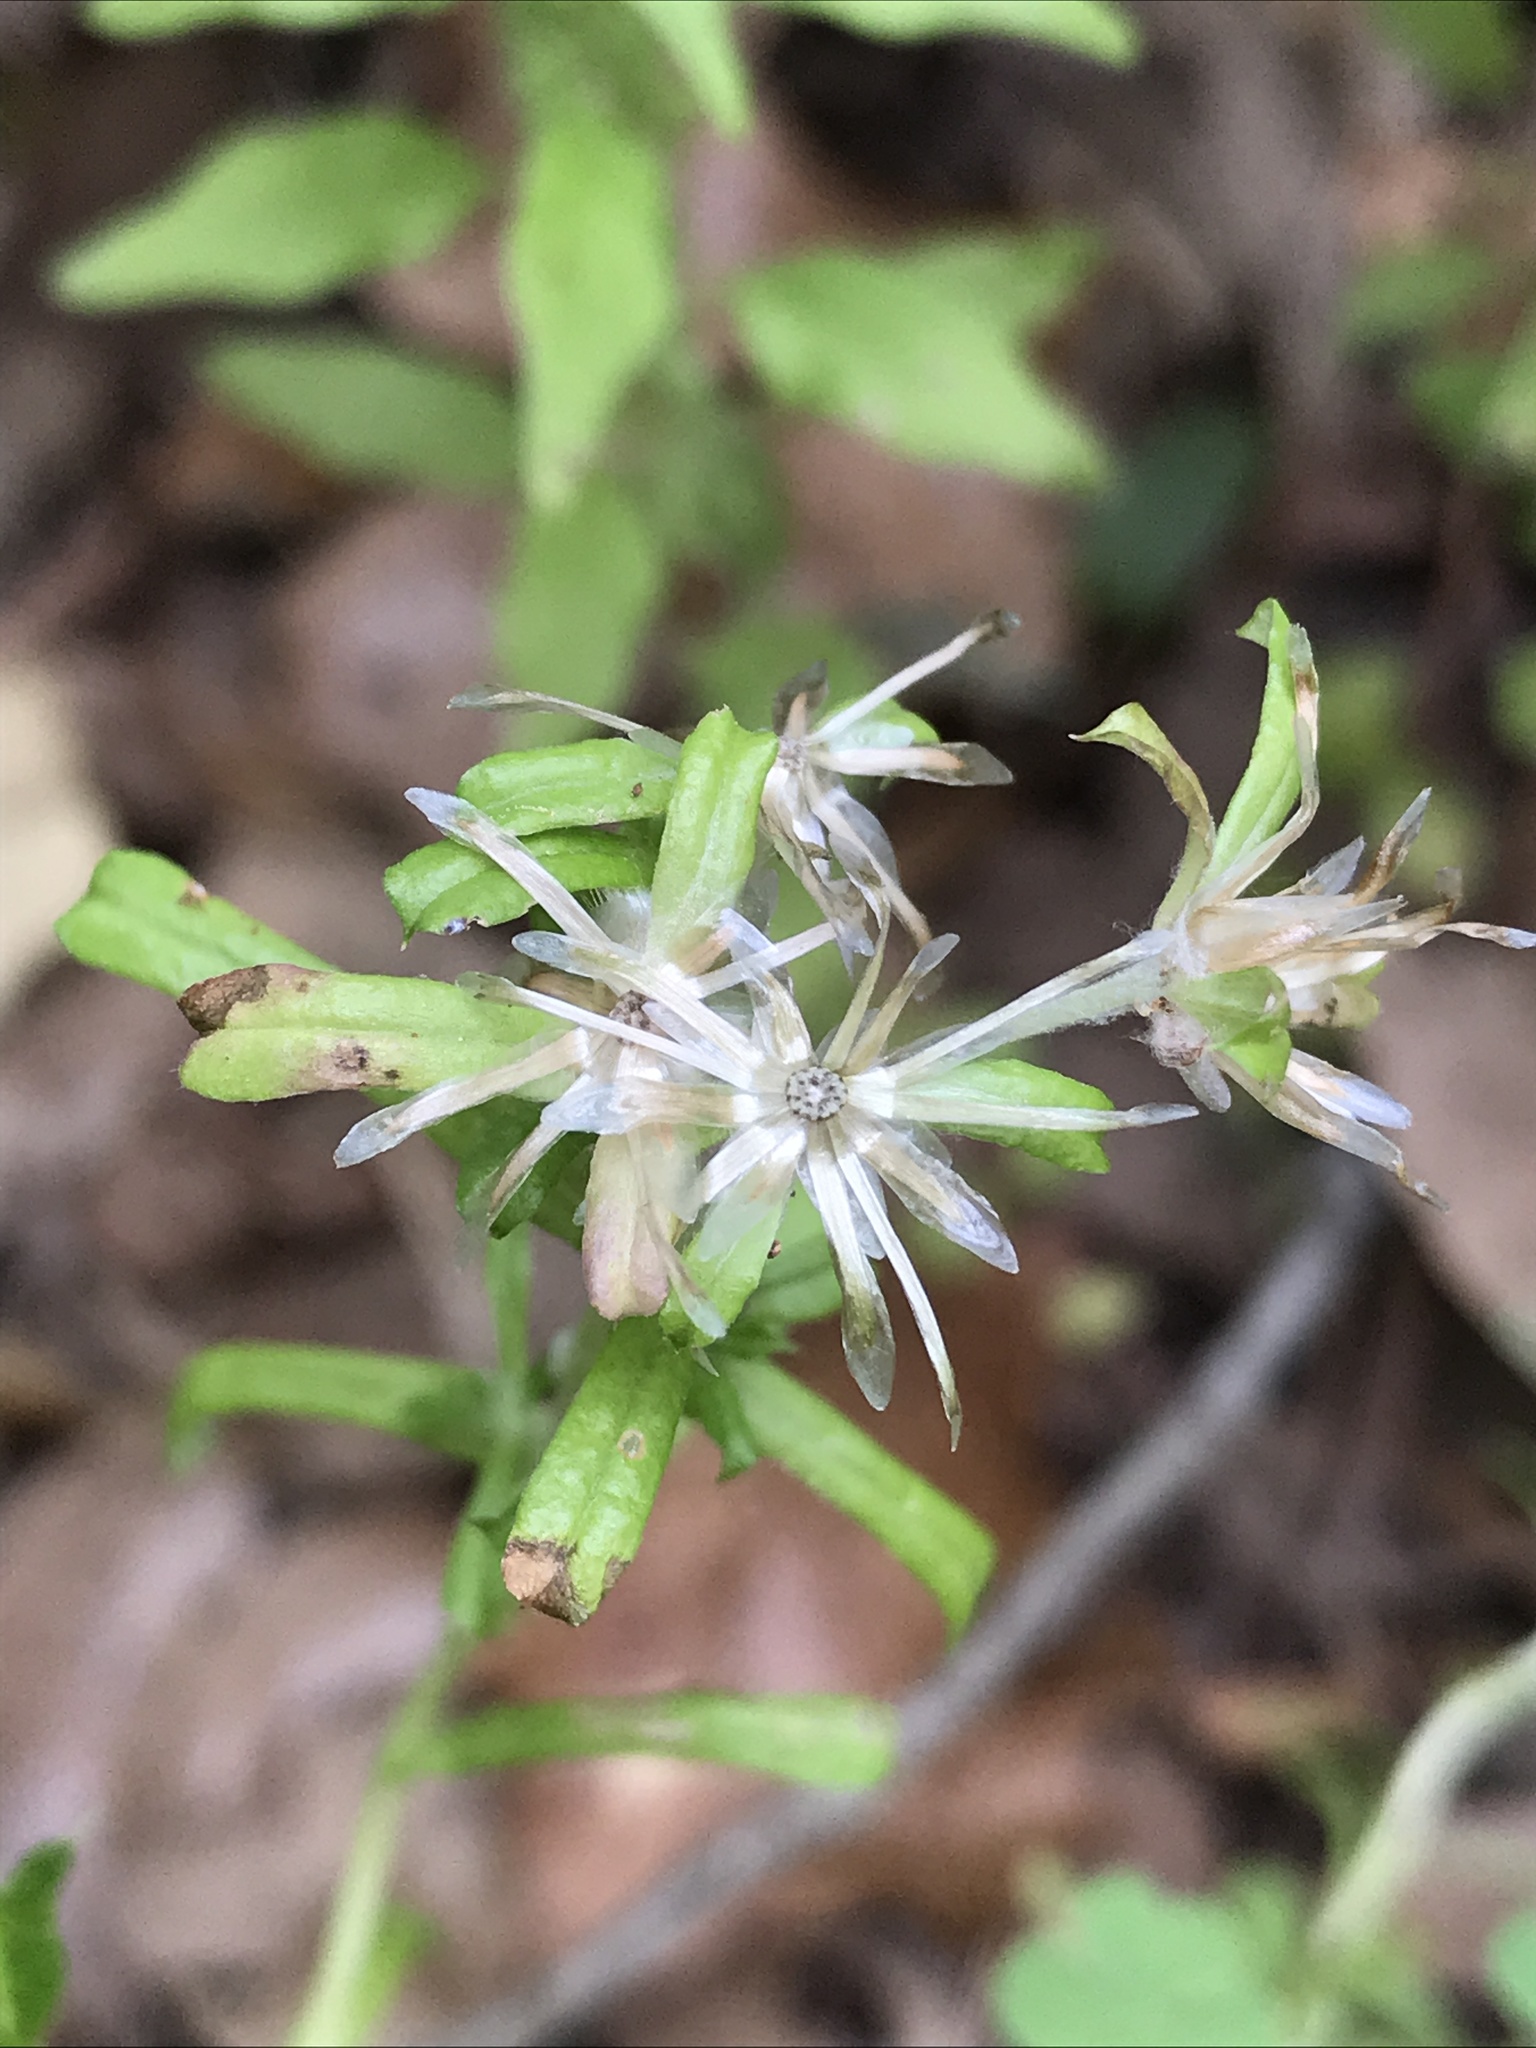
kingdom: Plantae
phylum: Tracheophyta
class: Magnoliopsida
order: Asterales
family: Asteraceae
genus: Facelis
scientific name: Facelis retusa
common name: Annual trampweed
